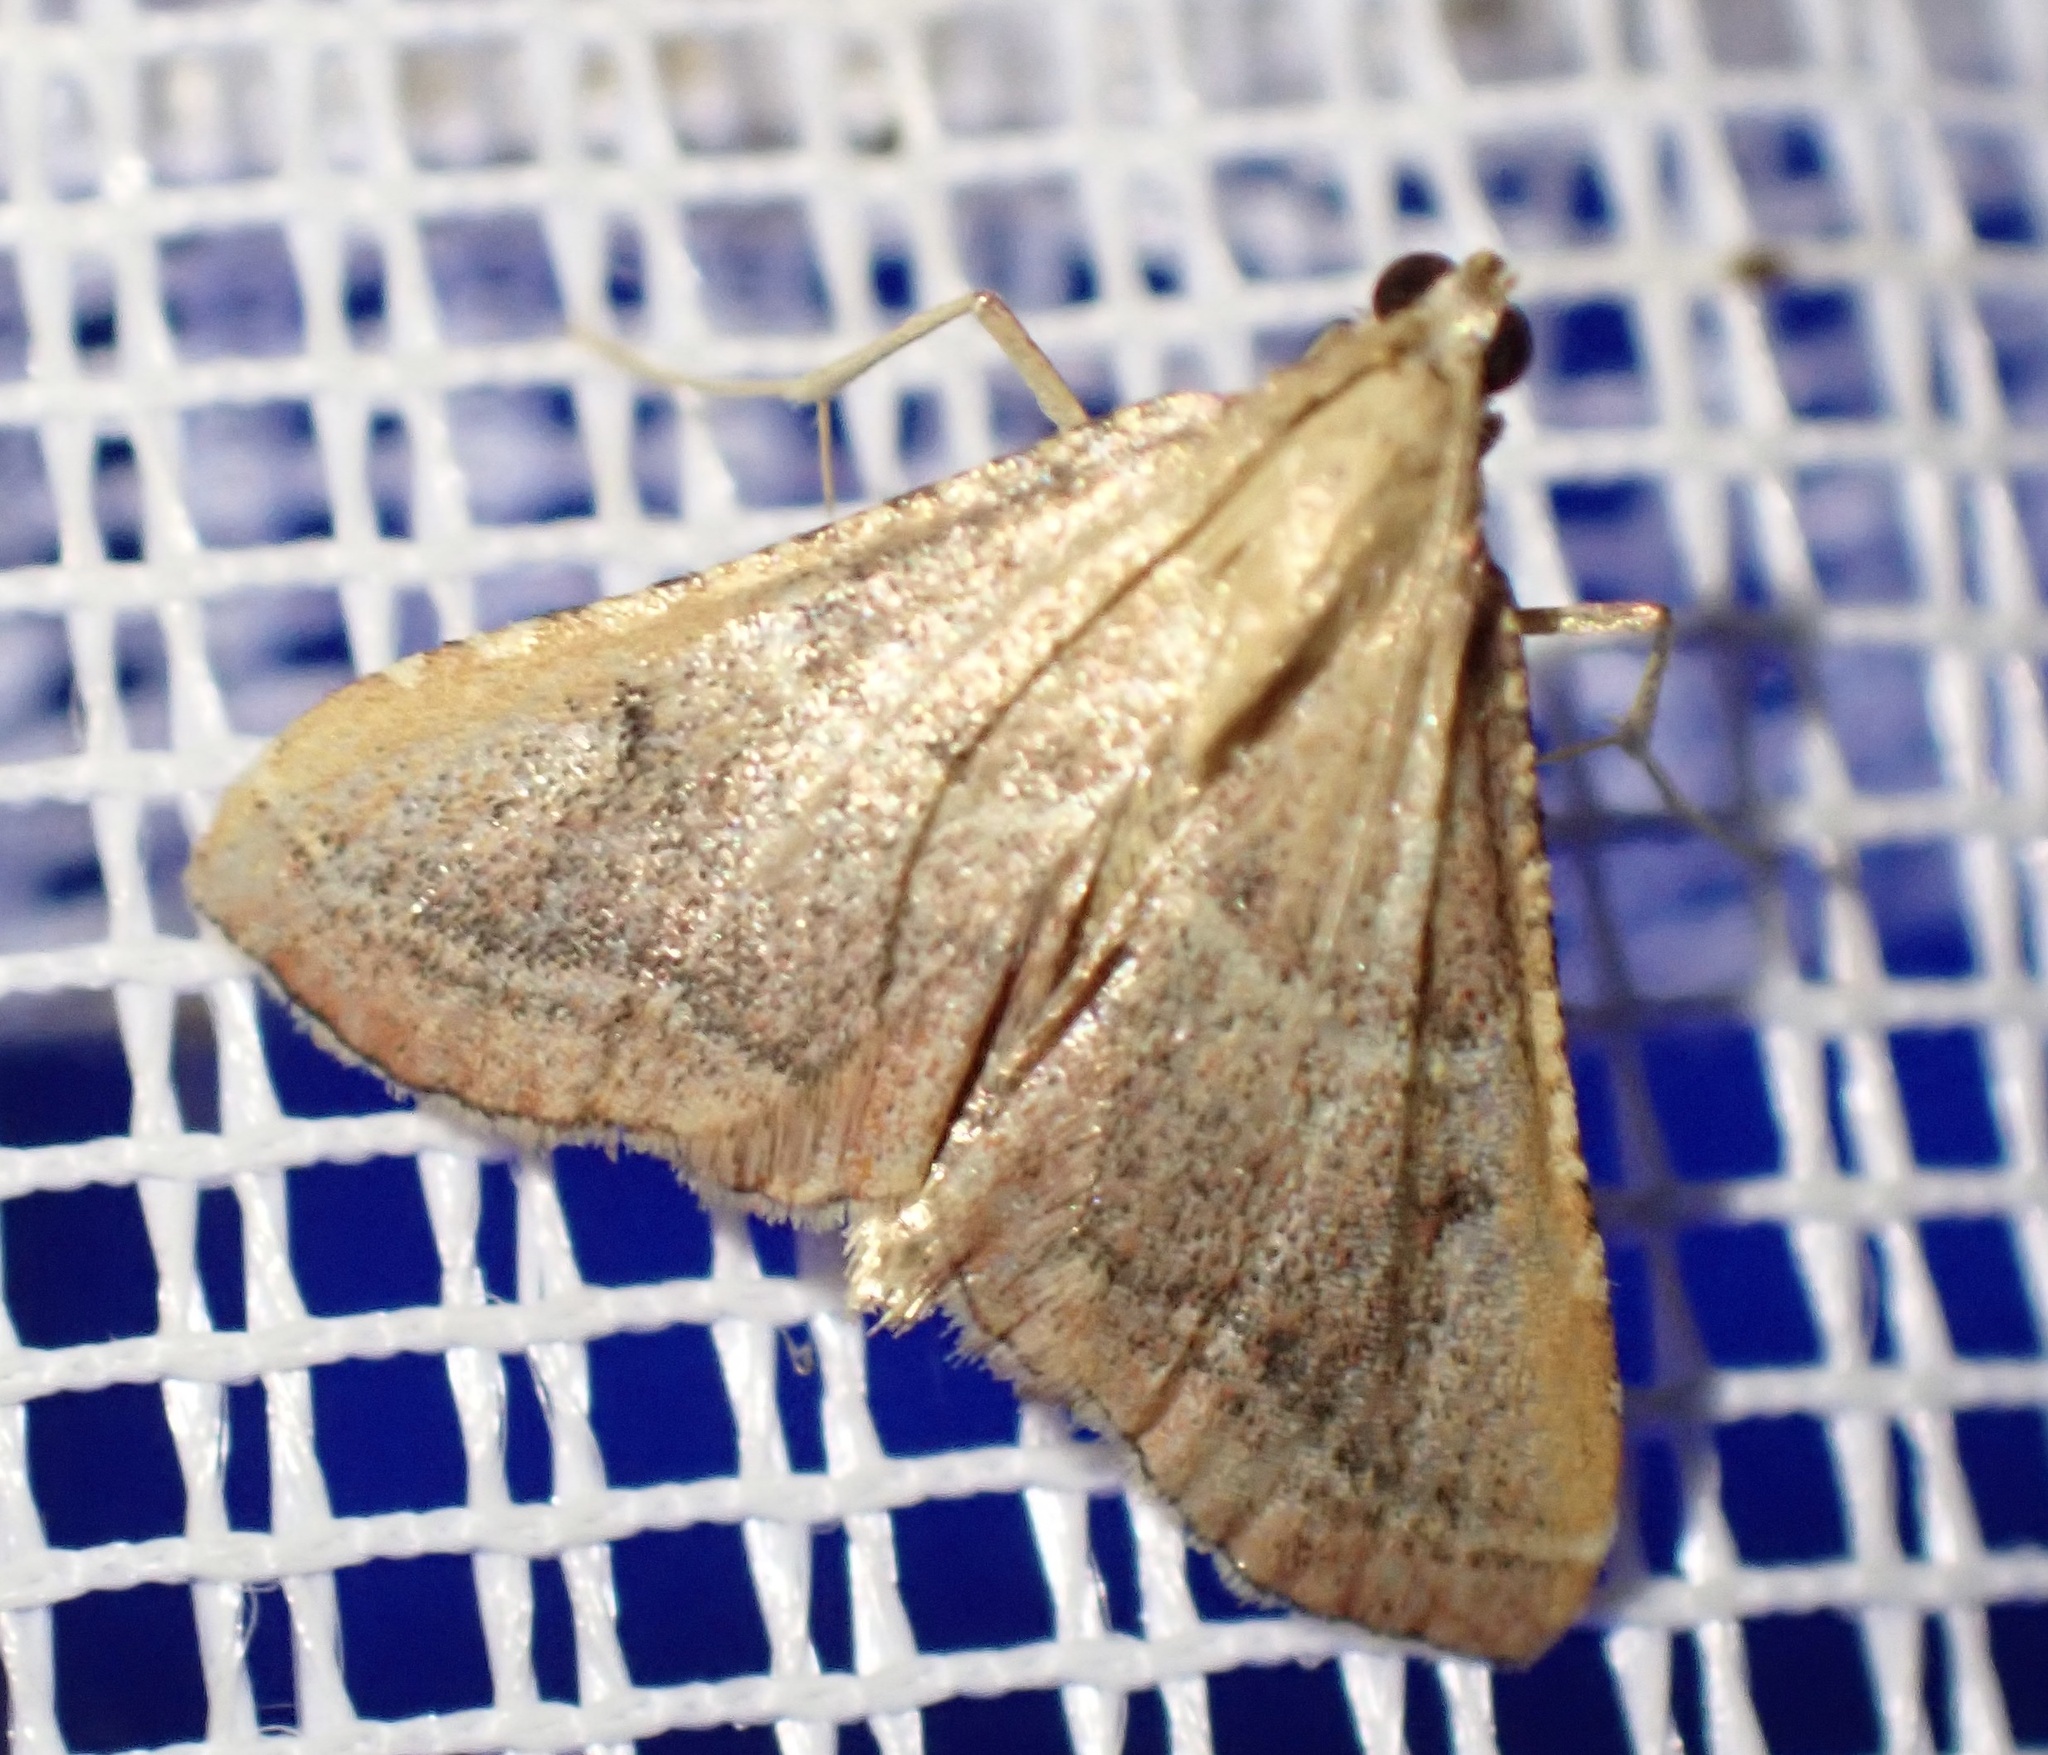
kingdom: Animalia
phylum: Arthropoda
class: Insecta
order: Lepidoptera
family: Pyralidae
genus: Endotricha
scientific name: Endotricha flammealis
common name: Rosy tabby
